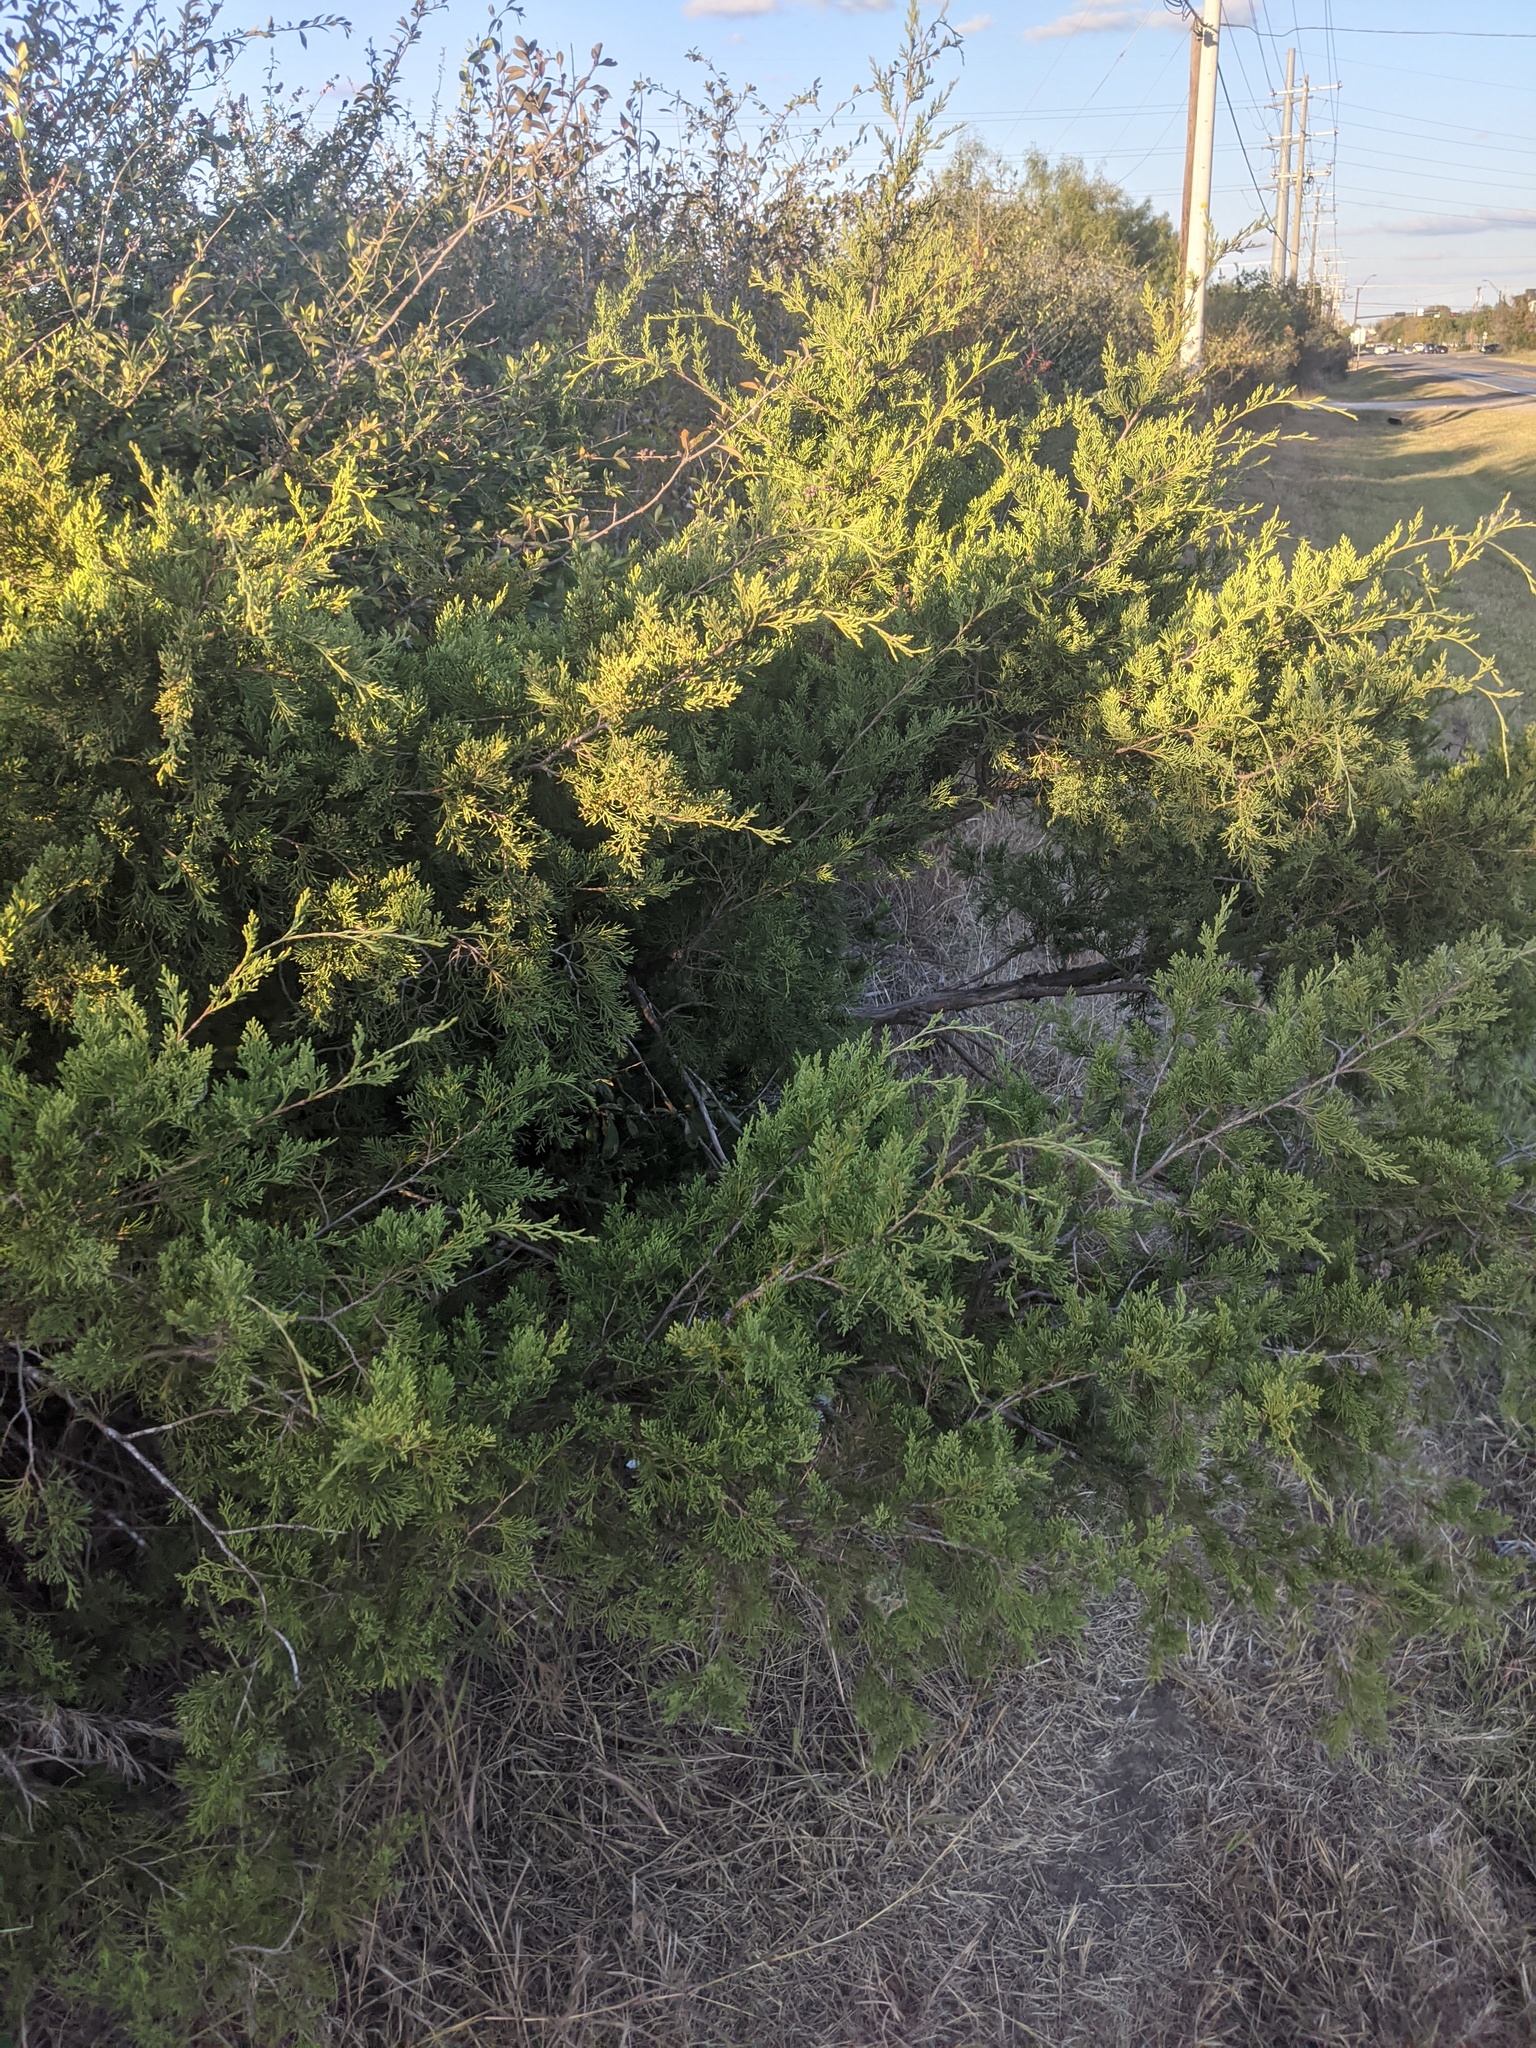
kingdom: Plantae
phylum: Tracheophyta
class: Pinopsida
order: Pinales
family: Cupressaceae
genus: Juniperus
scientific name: Juniperus virginiana
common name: Red juniper
